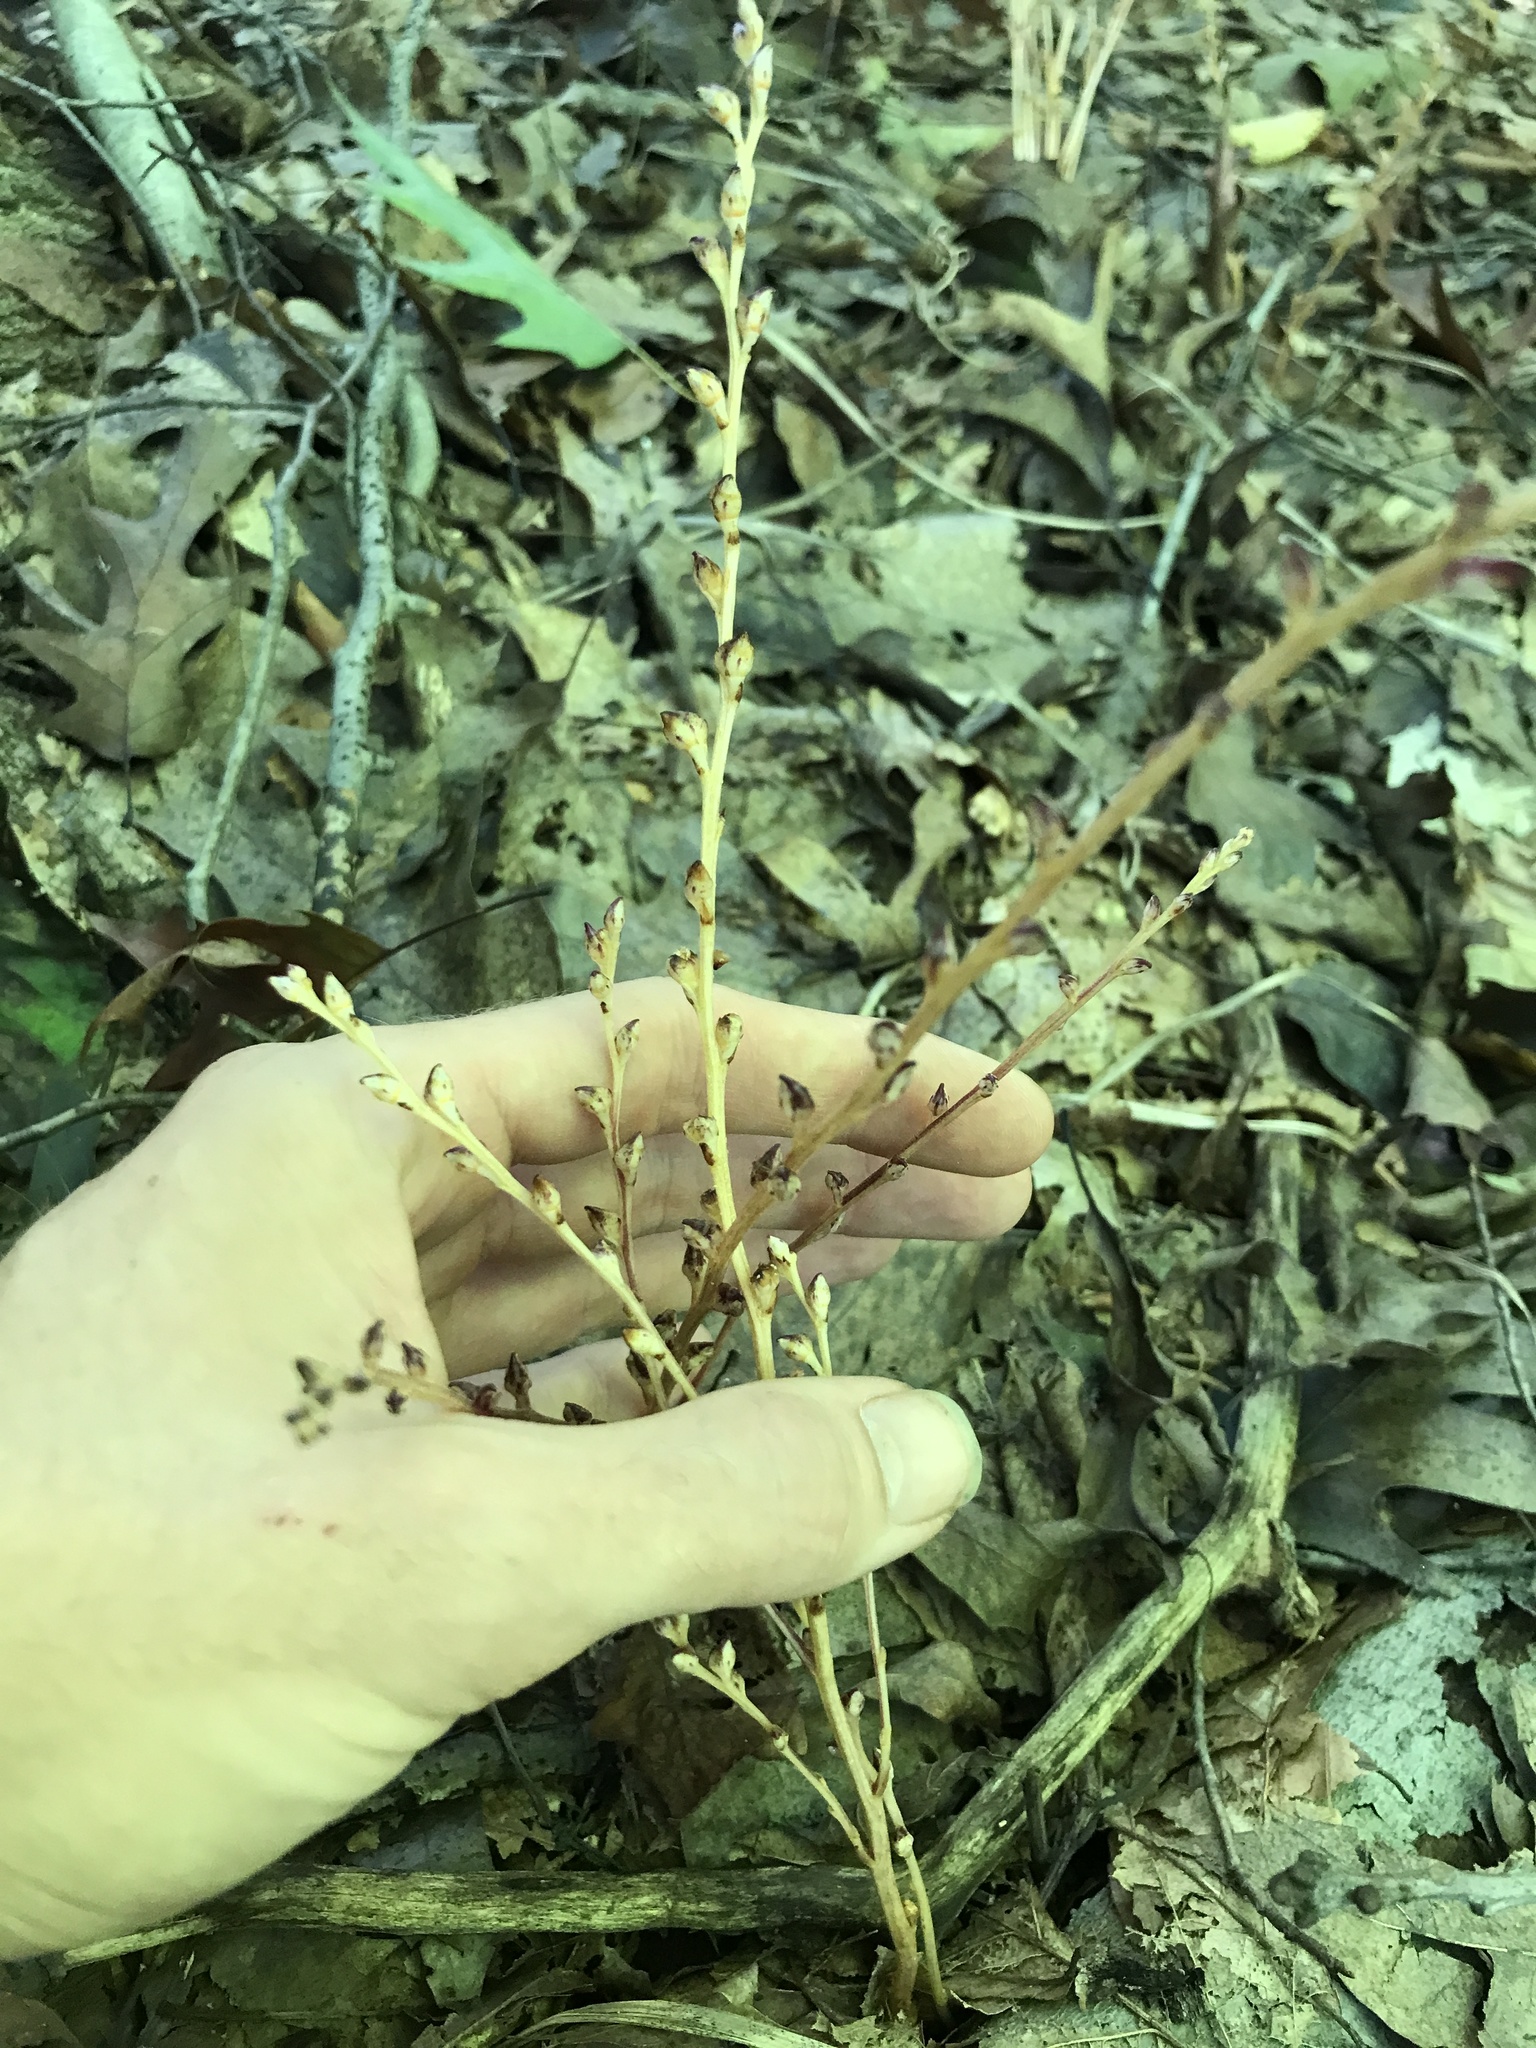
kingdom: Plantae
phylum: Tracheophyta
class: Magnoliopsida
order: Lamiales
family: Orobanchaceae
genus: Epifagus
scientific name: Epifagus virginiana
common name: Beechdrops
